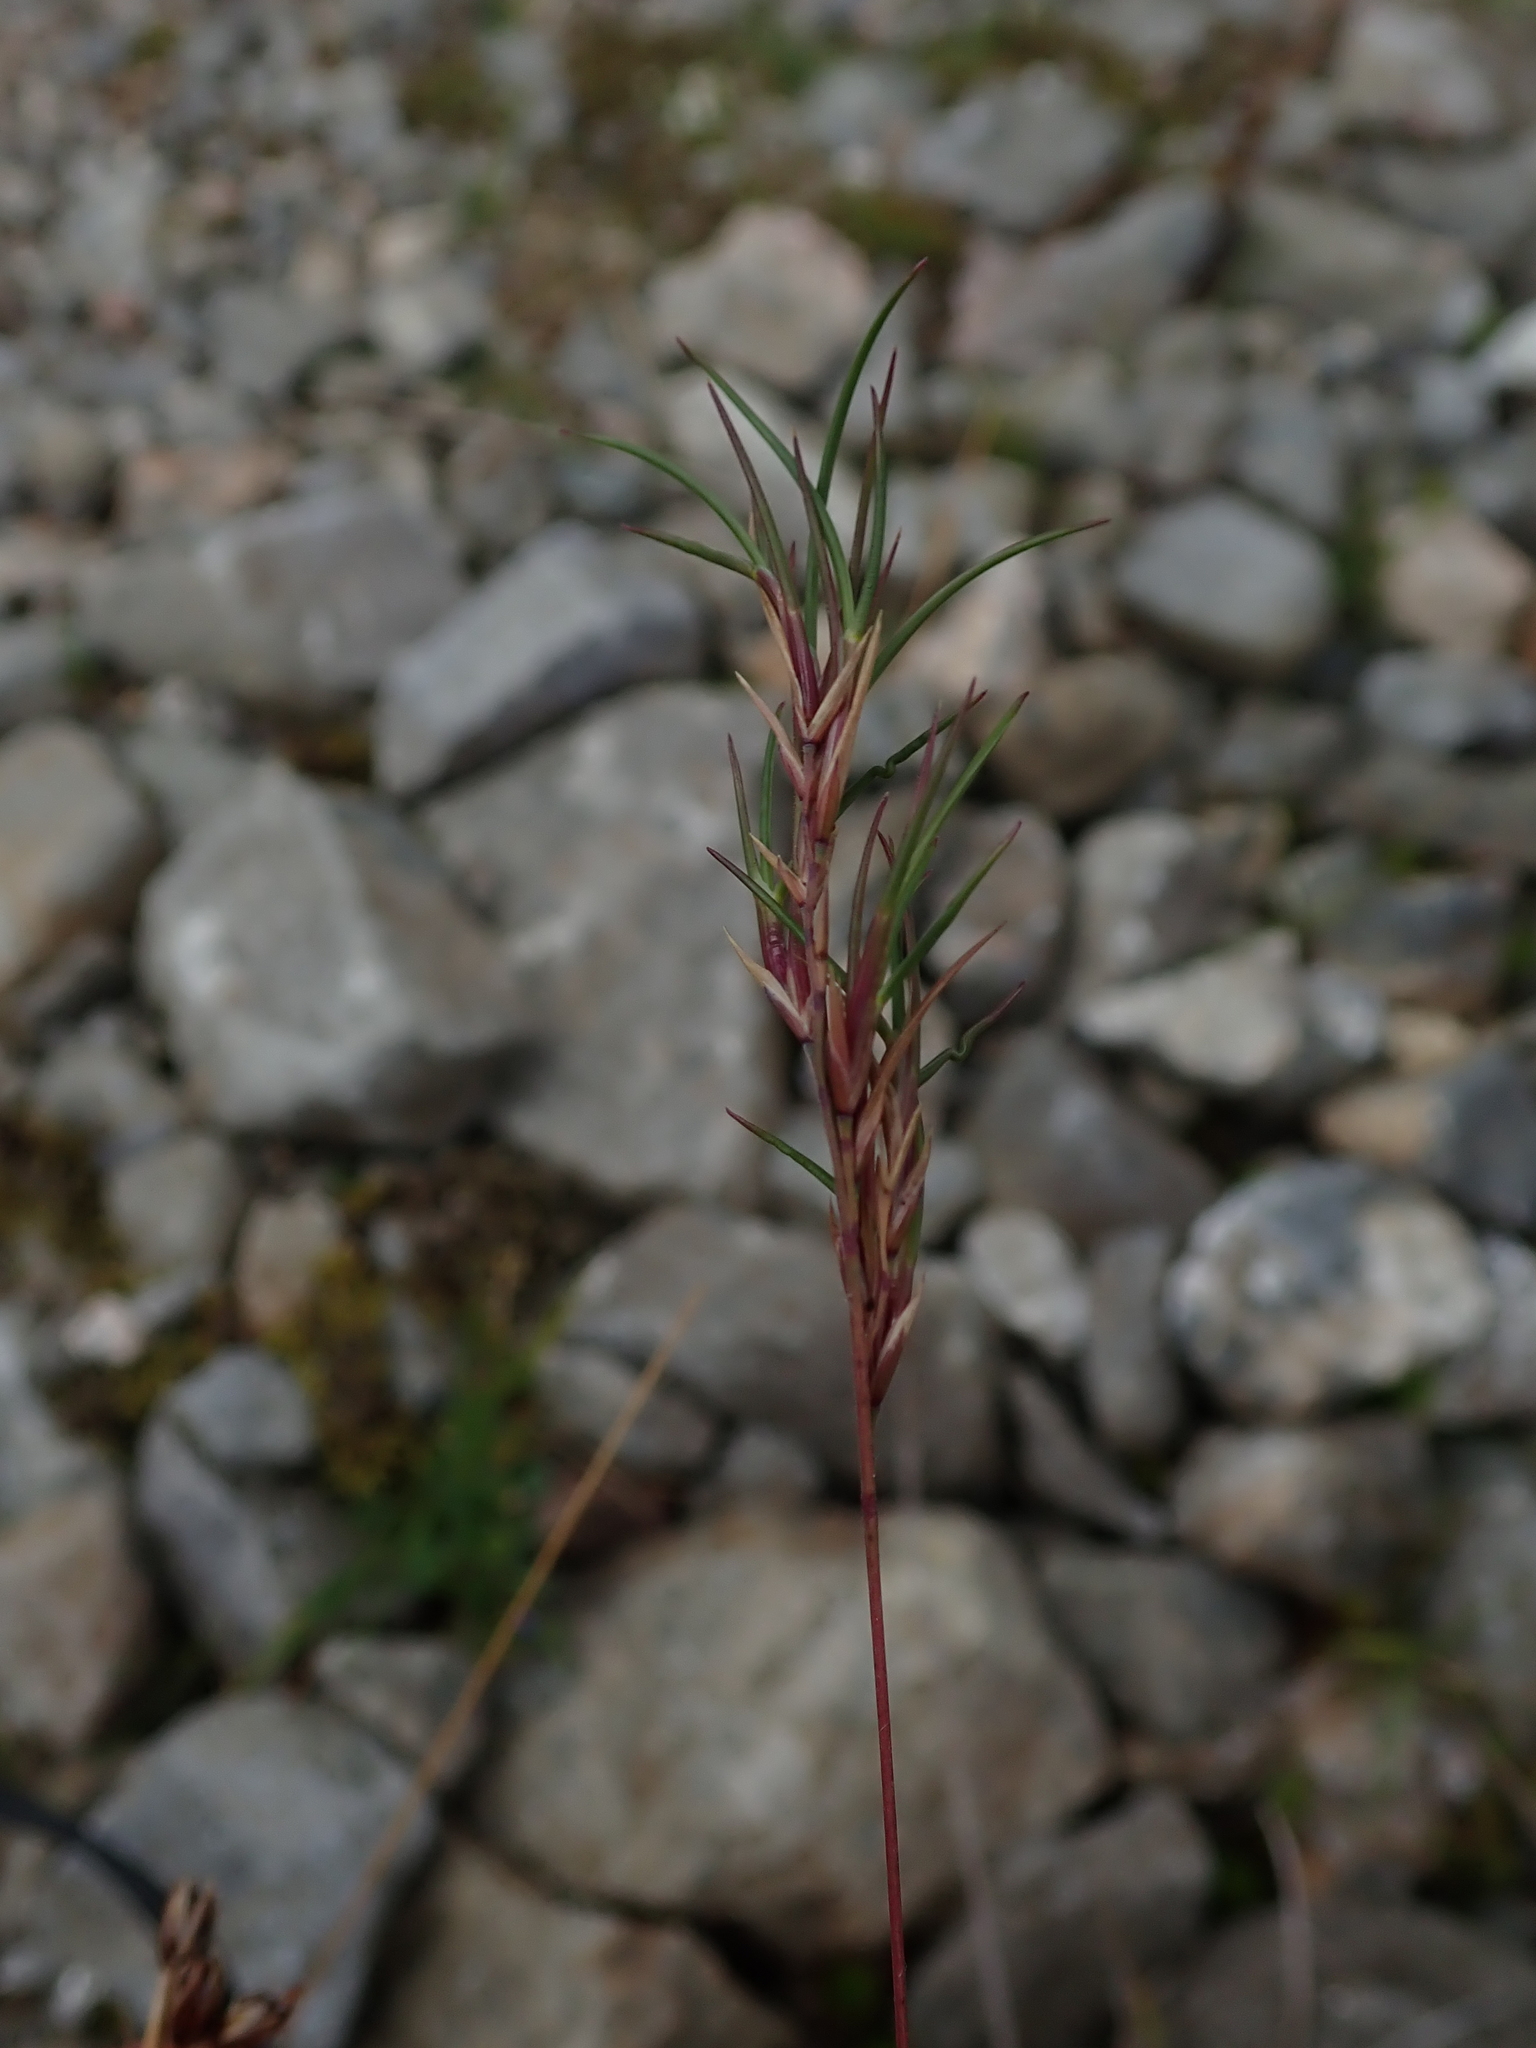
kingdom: Plantae
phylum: Tracheophyta
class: Liliopsida
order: Poales
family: Poaceae
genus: Poa
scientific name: Poa alpina
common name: Alpine bluegrass
